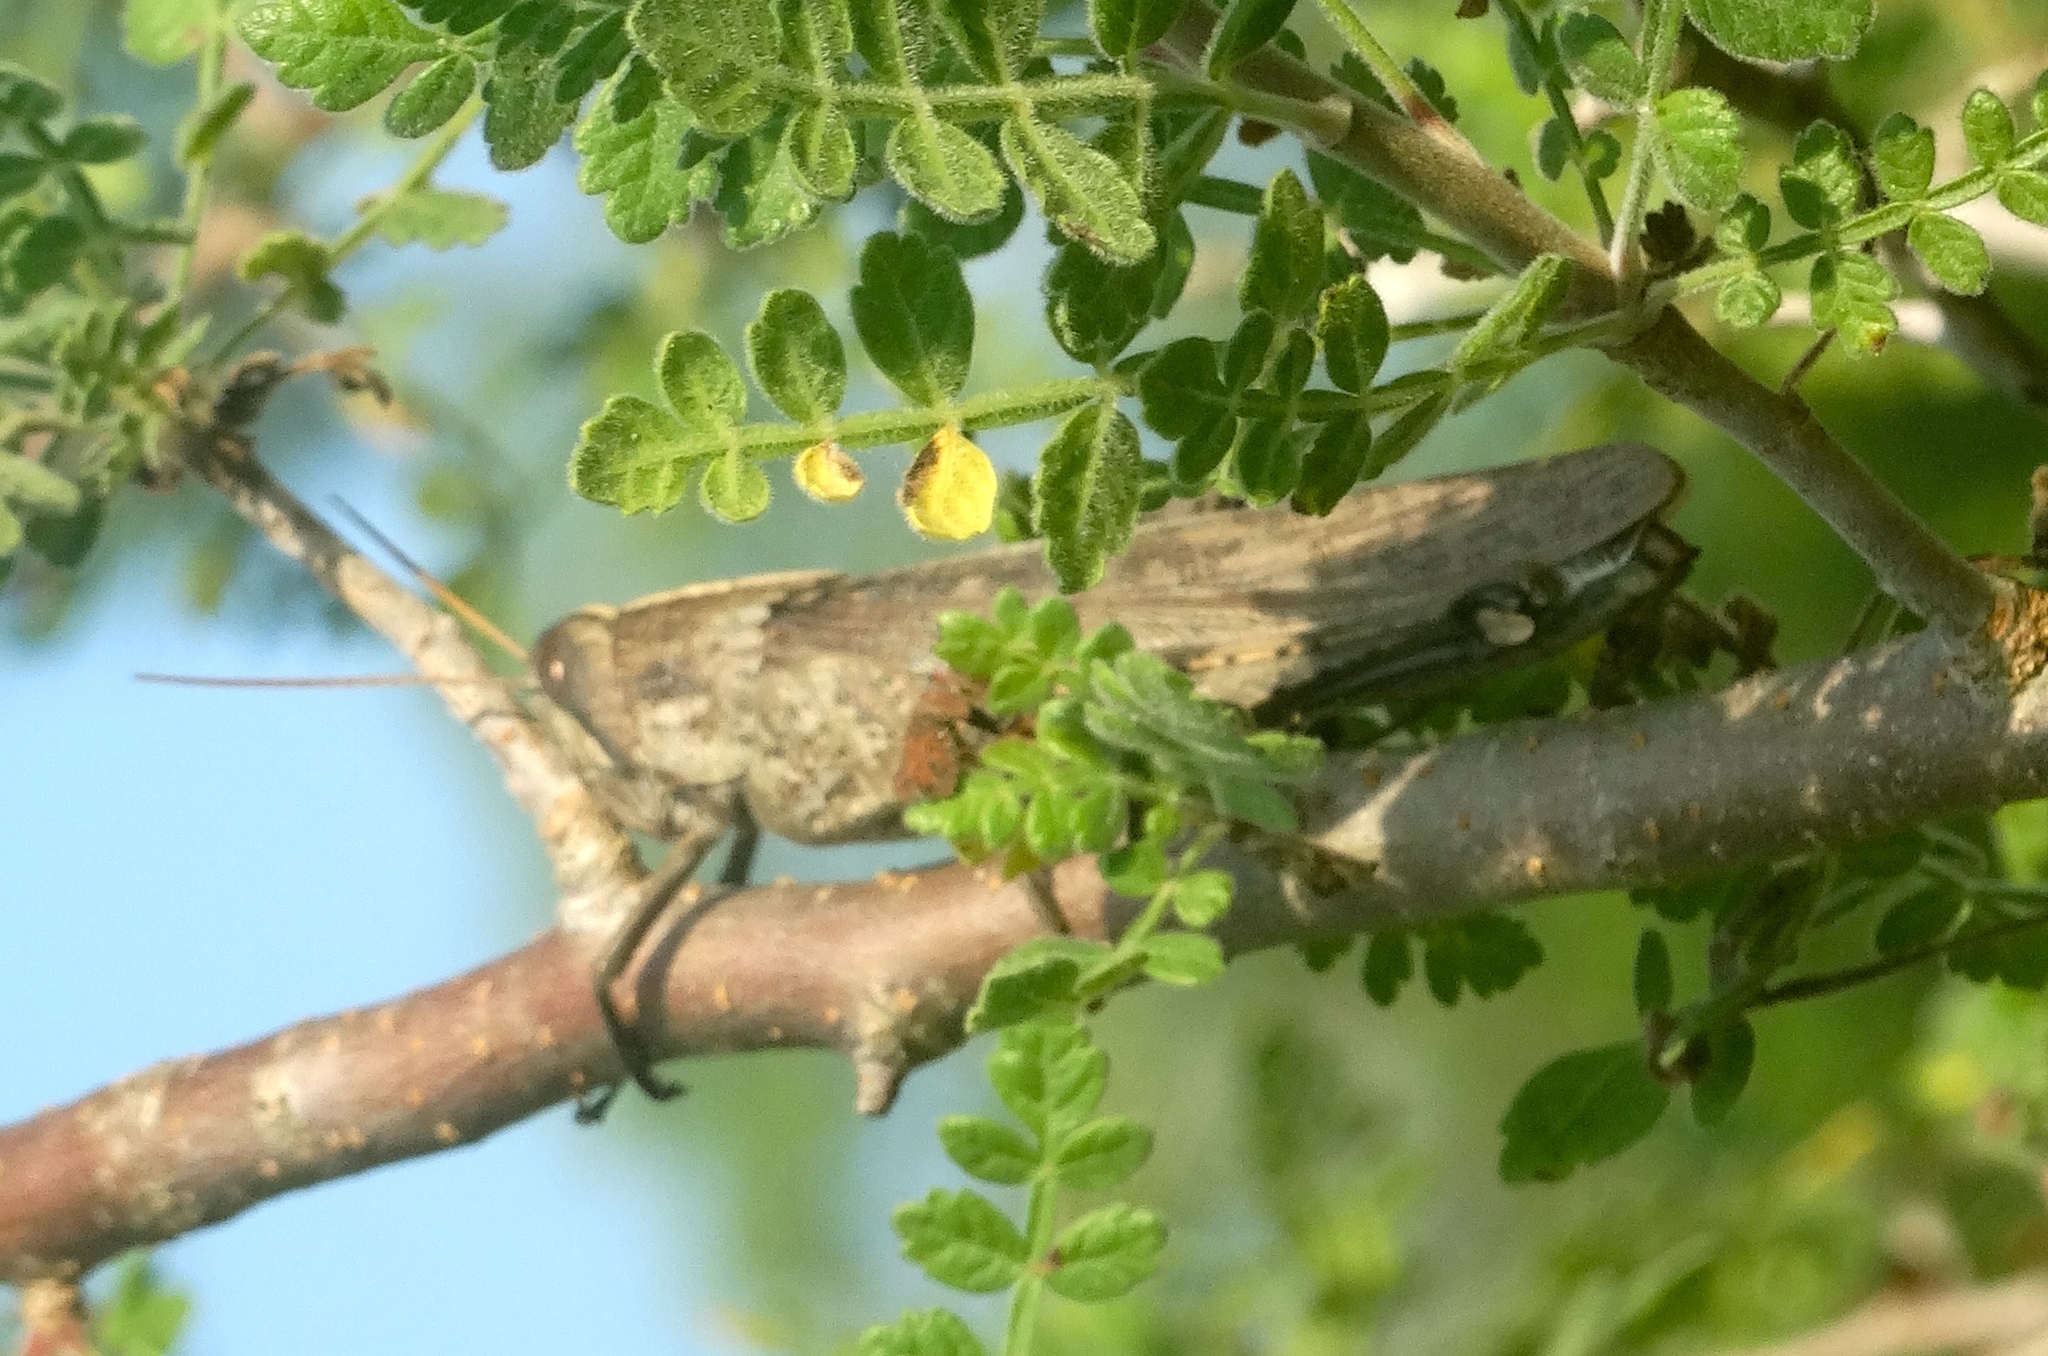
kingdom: Animalia
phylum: Arthropoda
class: Insecta
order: Orthoptera
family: Acrididae
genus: Schistocerca
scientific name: Schistocerca camerata
